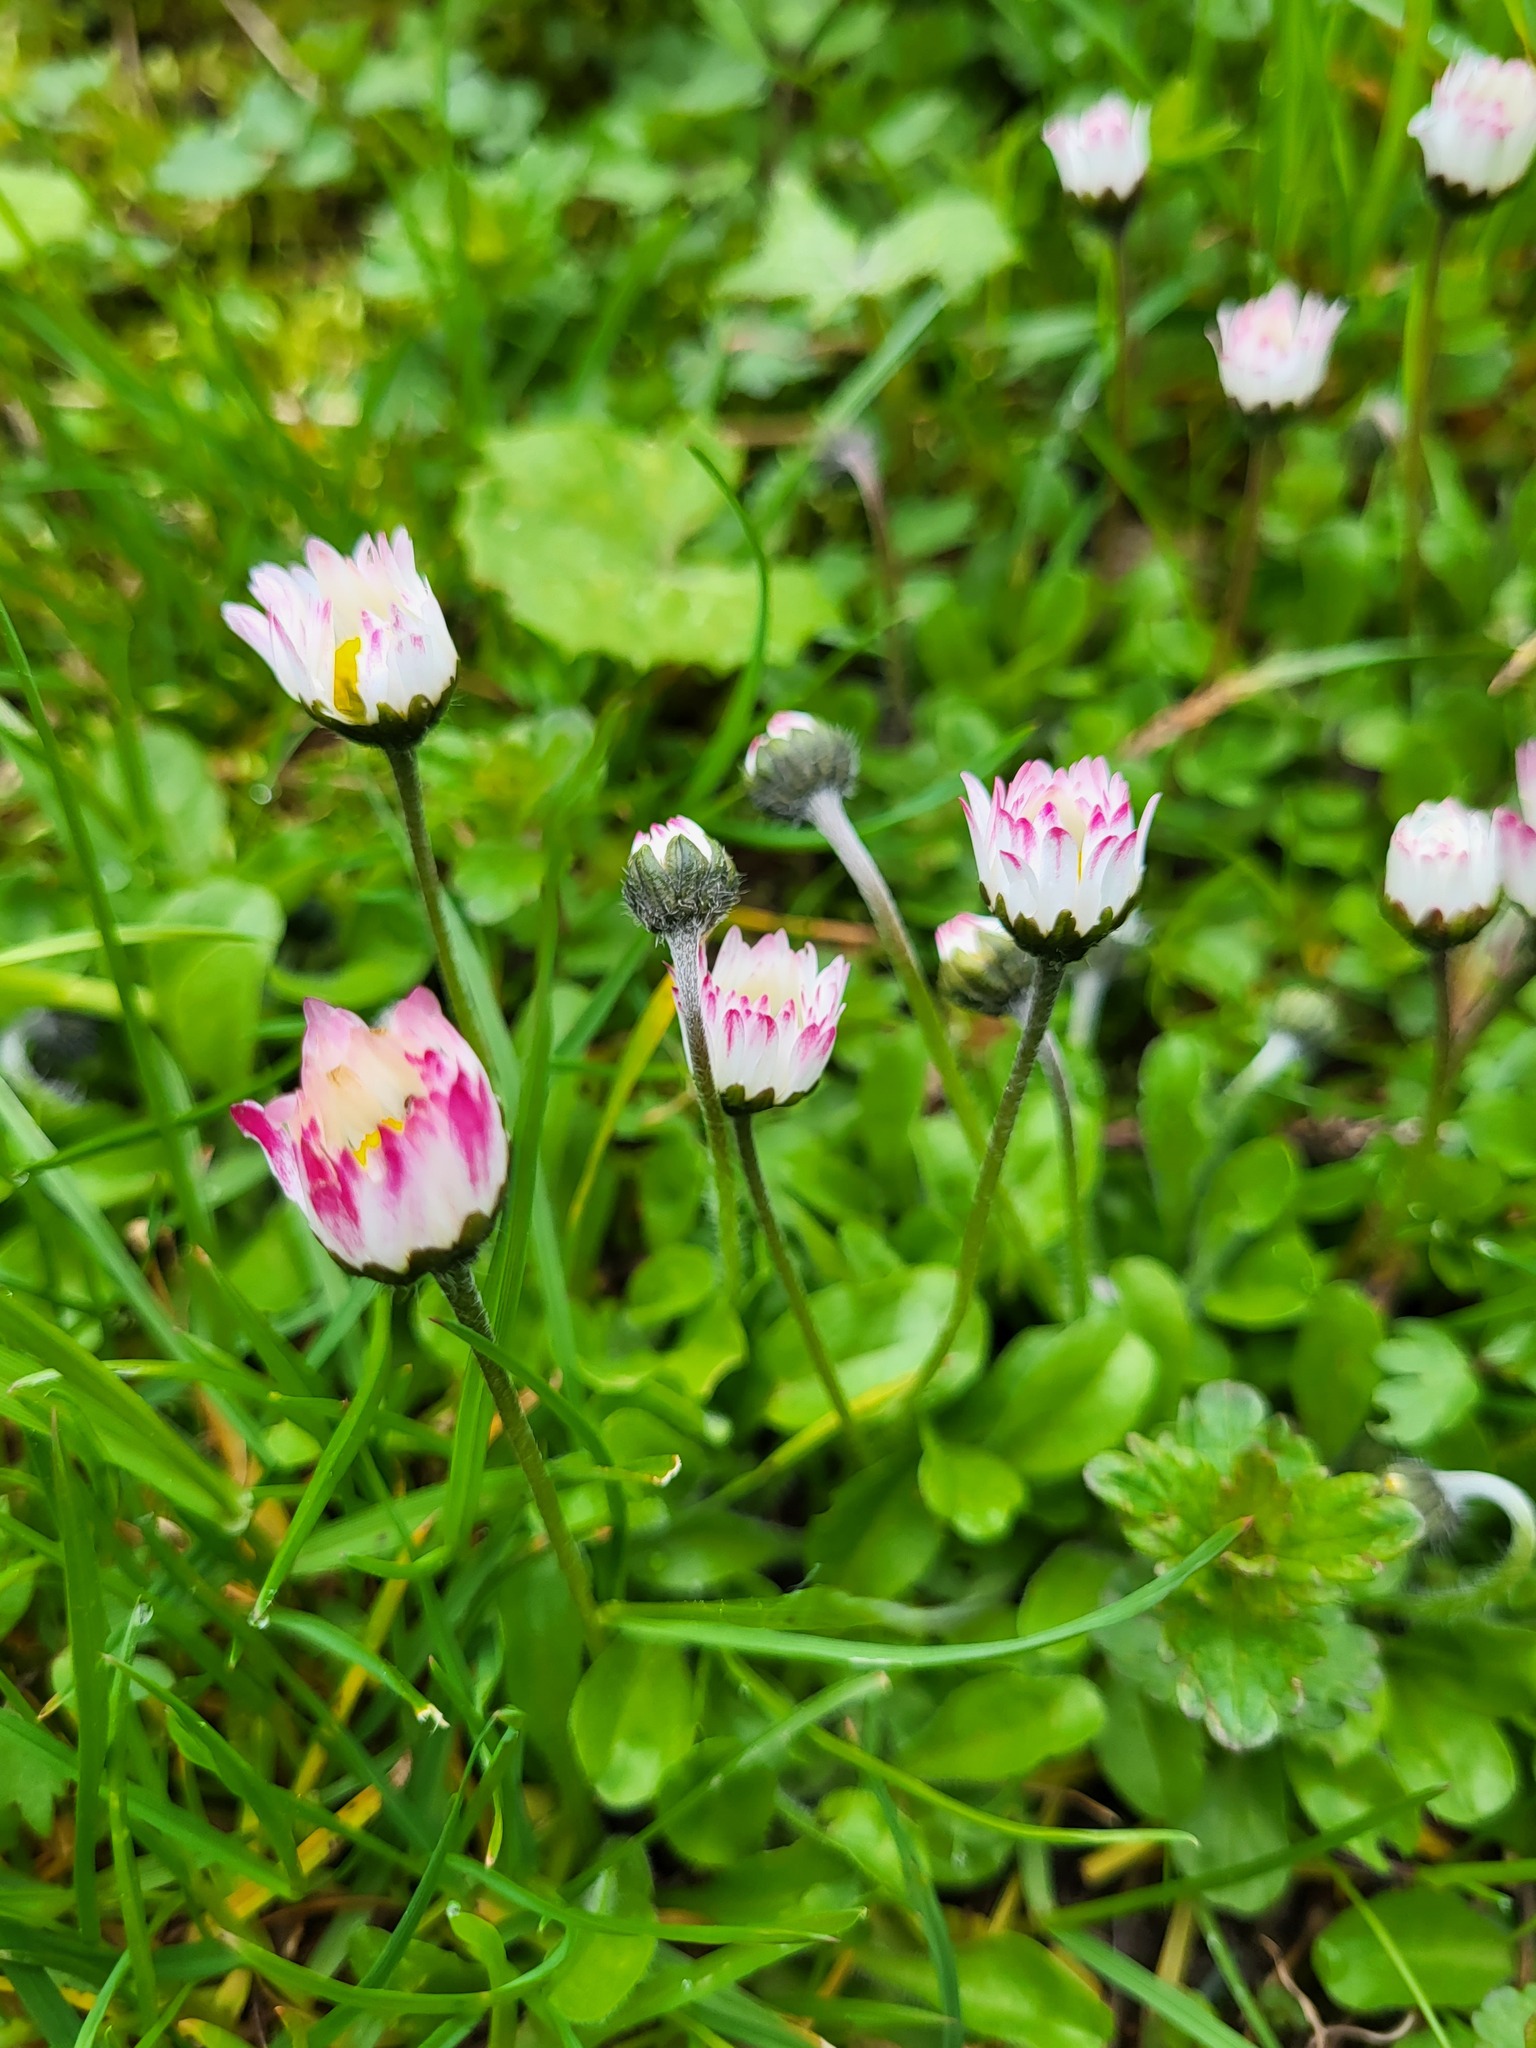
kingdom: Plantae
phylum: Tracheophyta
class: Magnoliopsida
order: Asterales
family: Asteraceae
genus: Bellis
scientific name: Bellis perennis
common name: Lawndaisy
